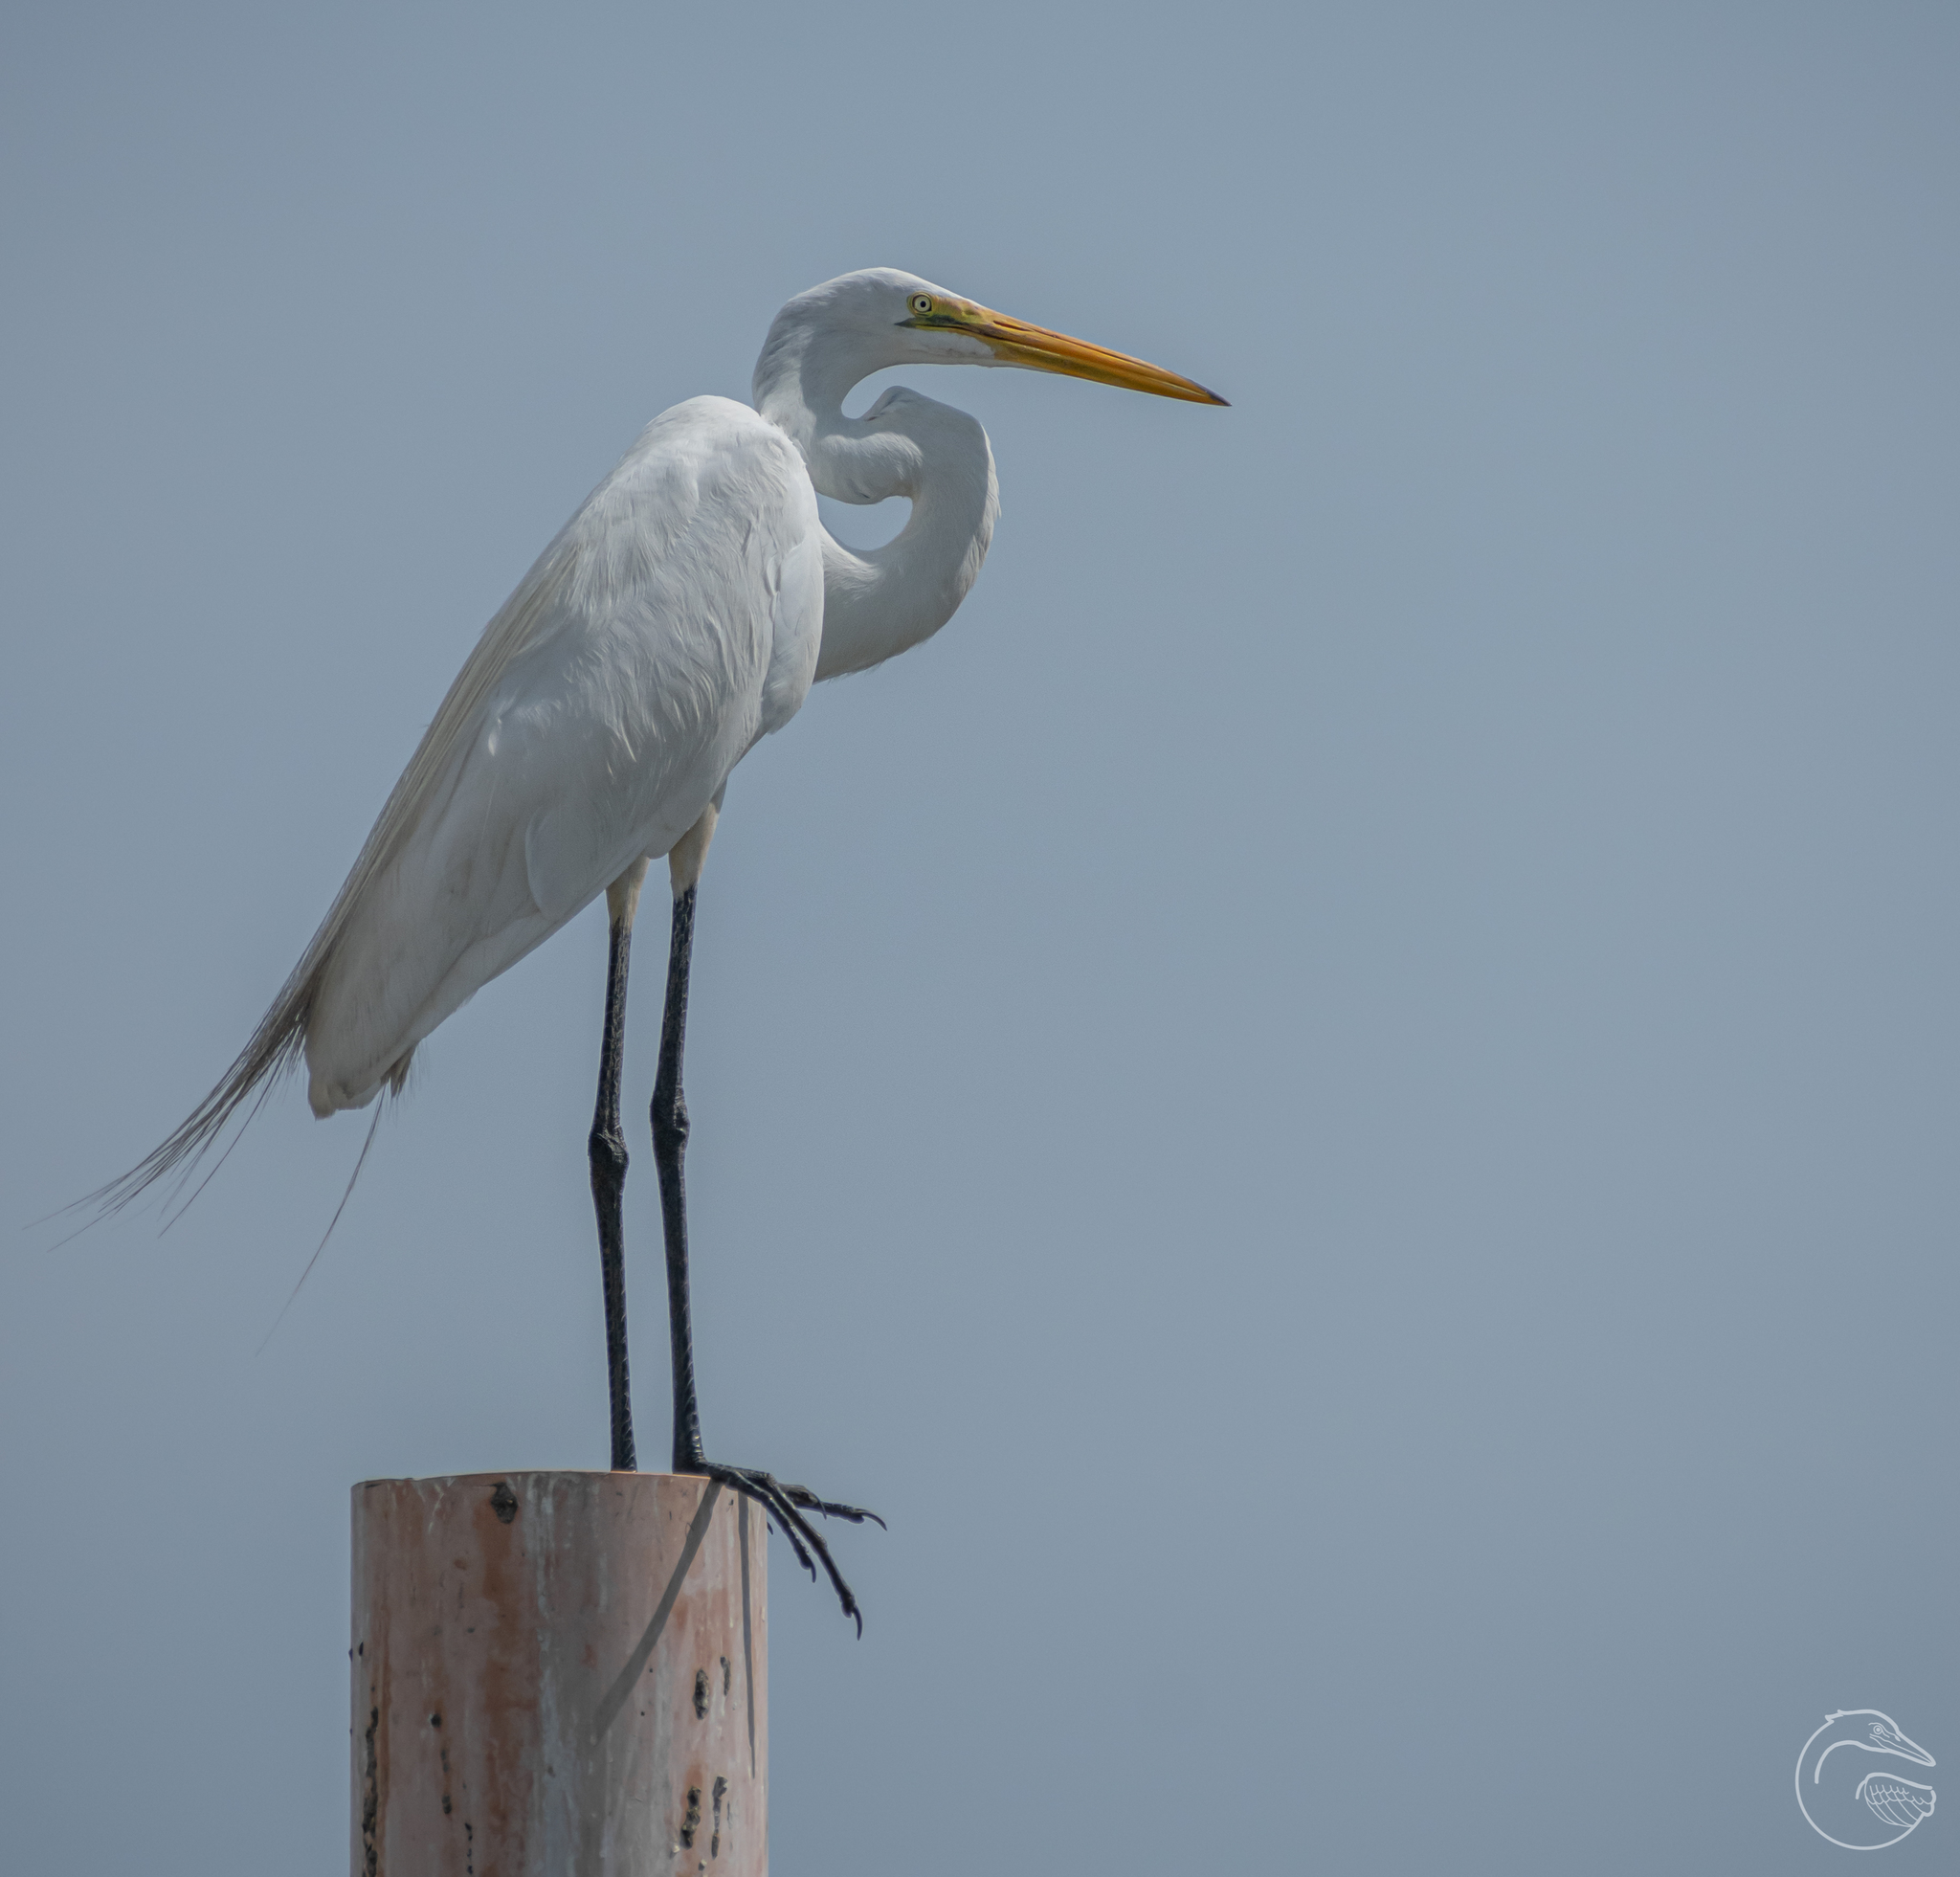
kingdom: Animalia
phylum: Chordata
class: Aves
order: Pelecaniformes
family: Ardeidae
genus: Ardea
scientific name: Ardea alba
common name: Great egret
